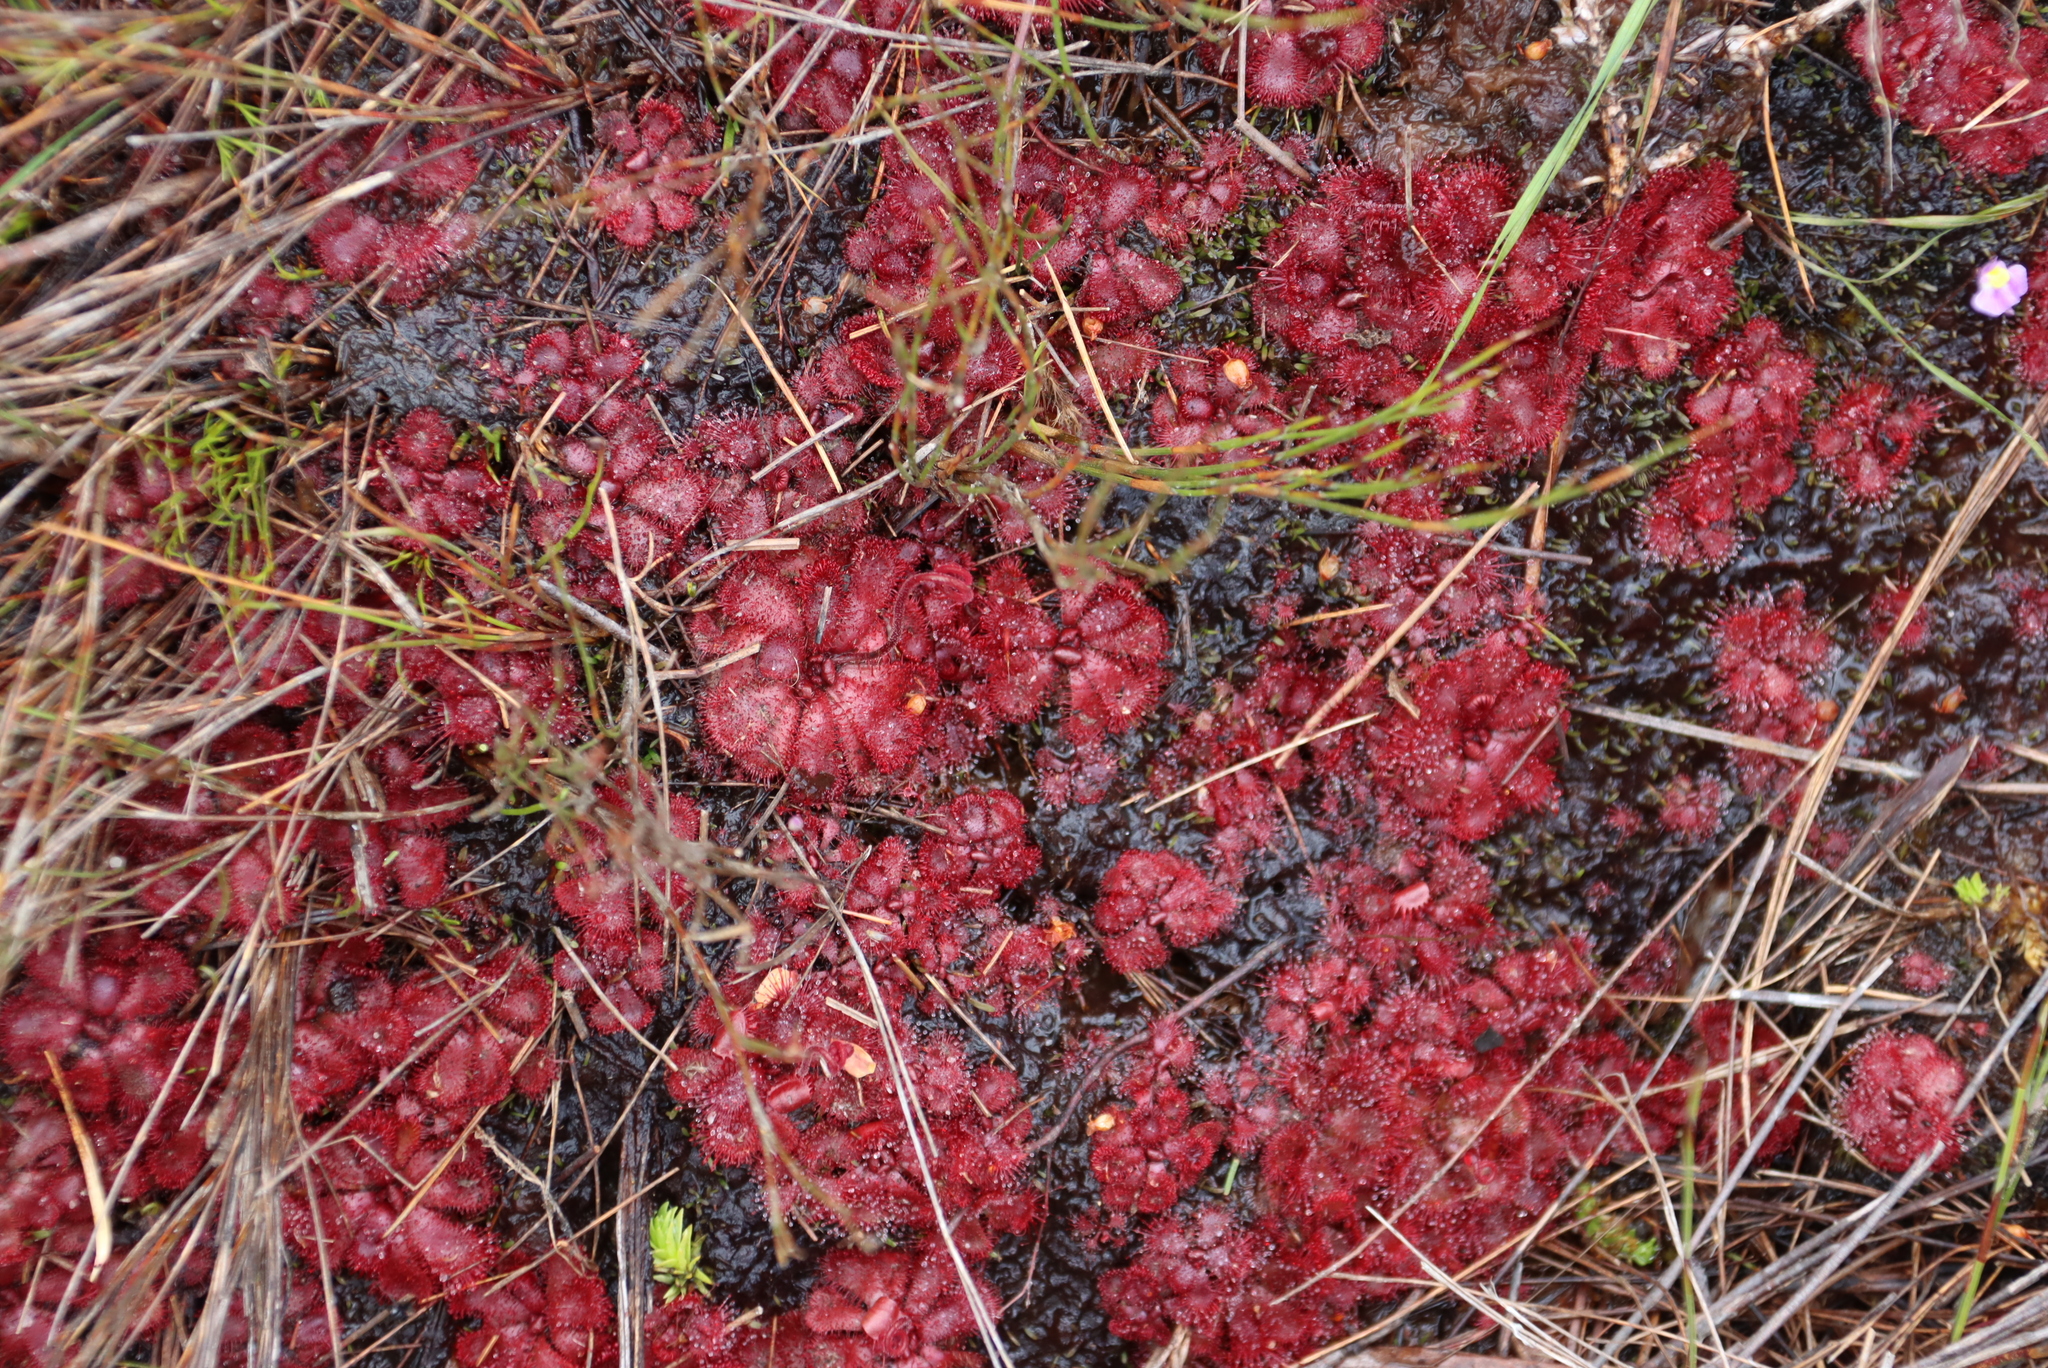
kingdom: Plantae
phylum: Tracheophyta
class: Magnoliopsida
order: Caryophyllales
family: Droseraceae
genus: Drosera
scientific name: Drosera cuneifolia
